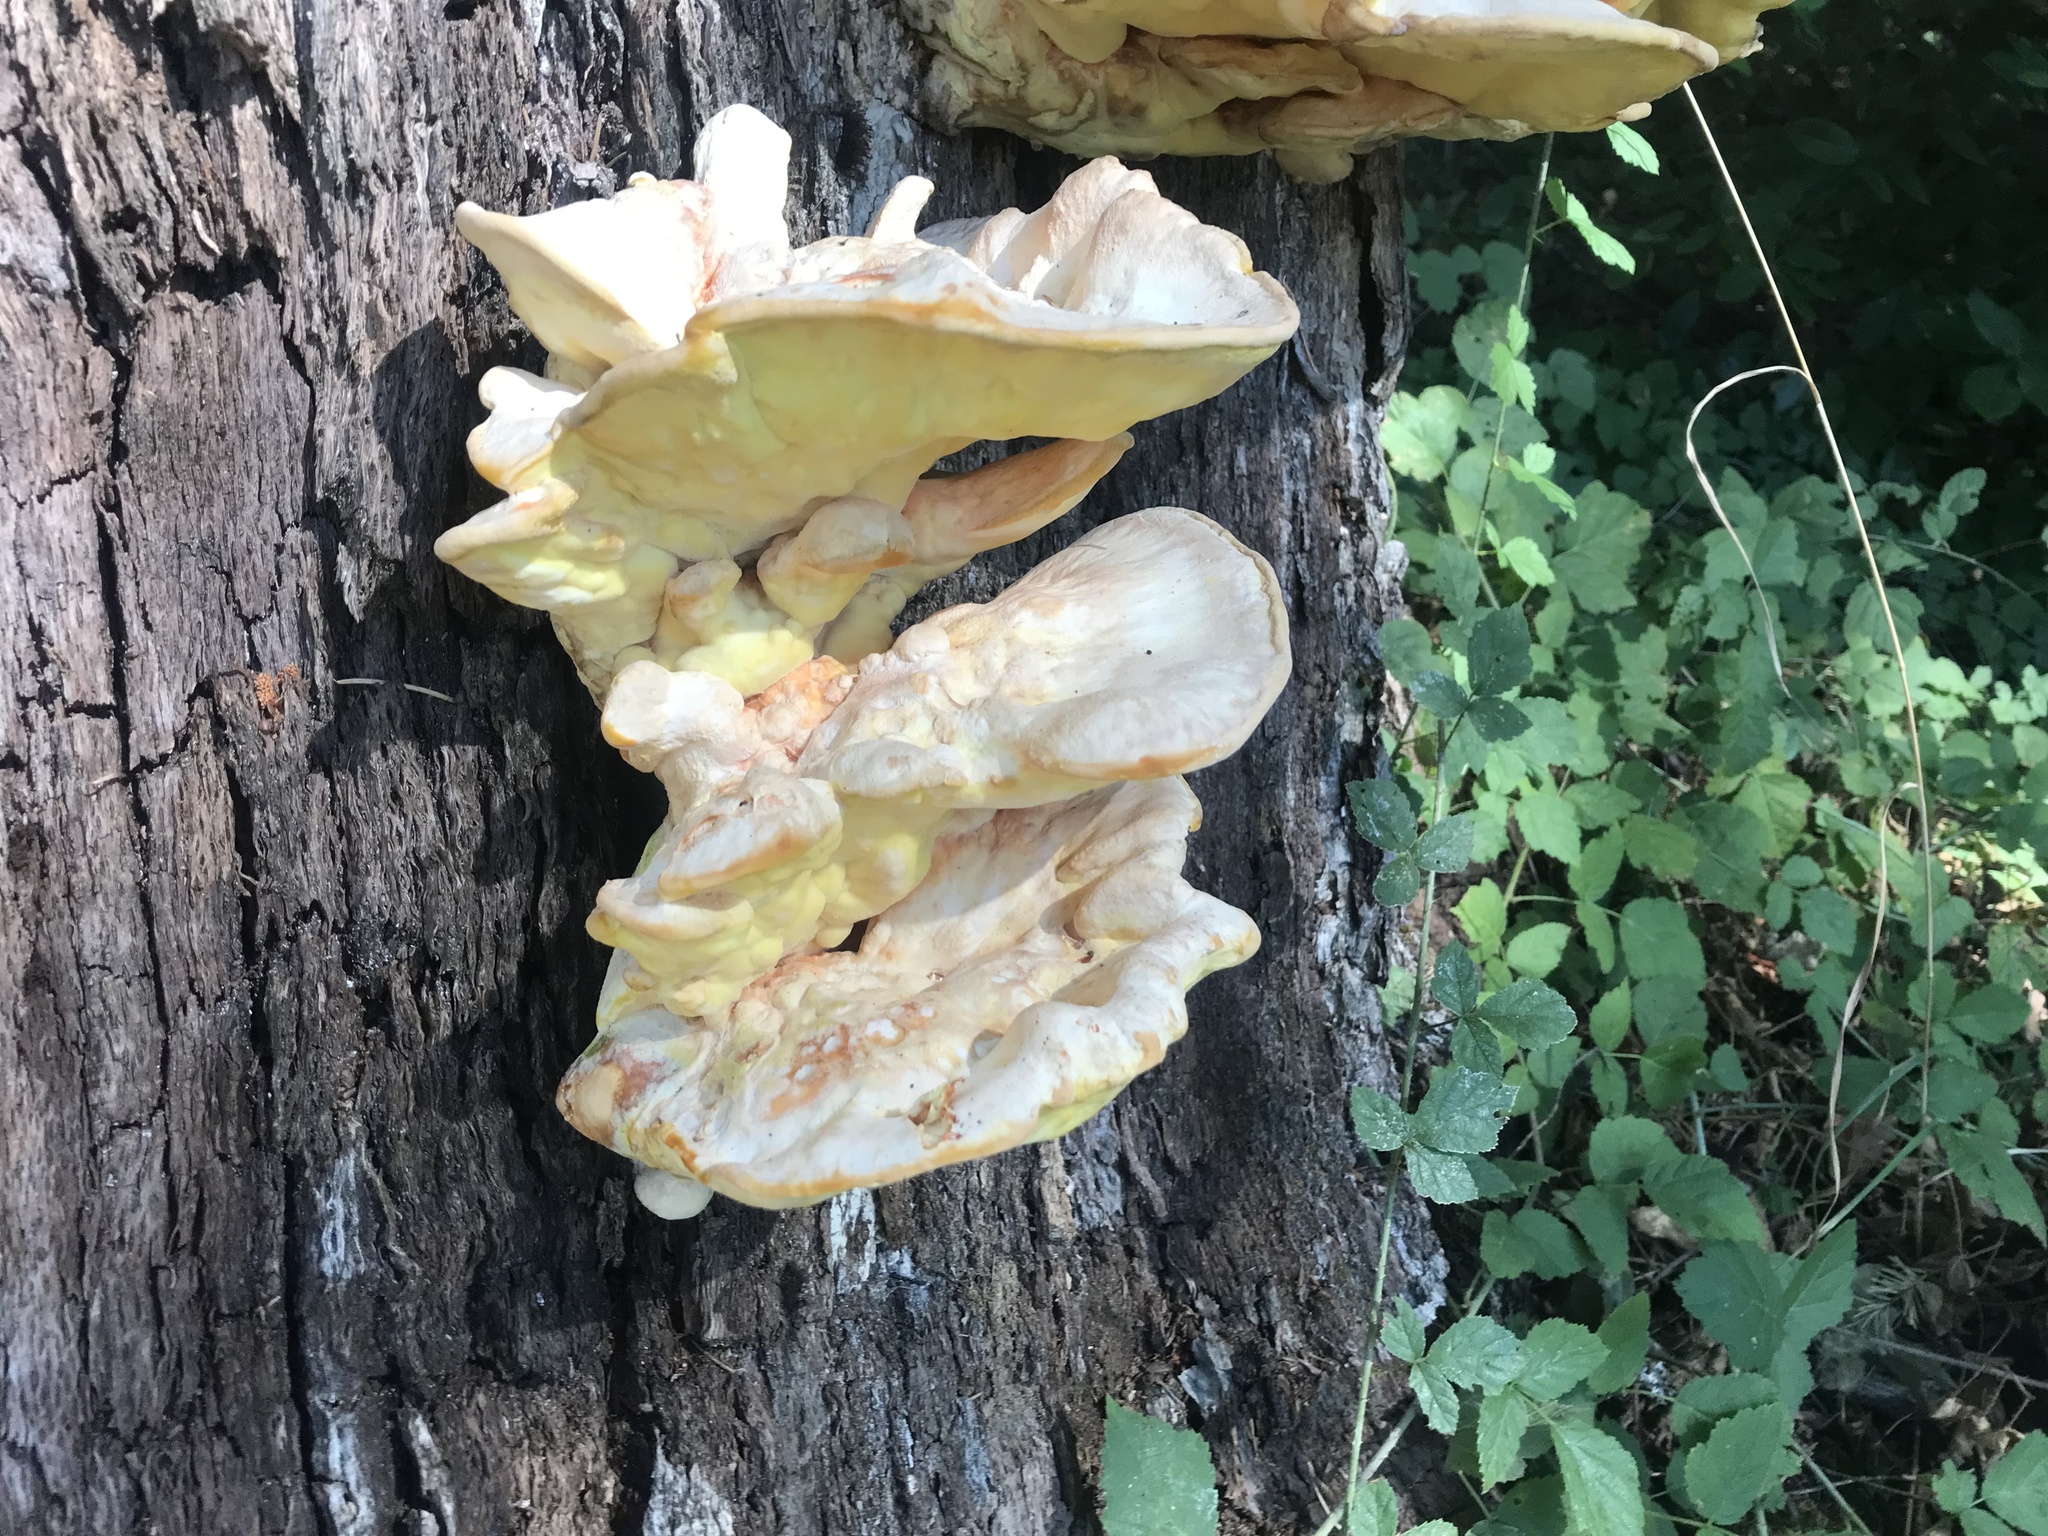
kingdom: Fungi
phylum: Basidiomycota
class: Agaricomycetes
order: Polyporales
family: Laetiporaceae
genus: Laetiporus
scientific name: Laetiporus gilbertsonii
